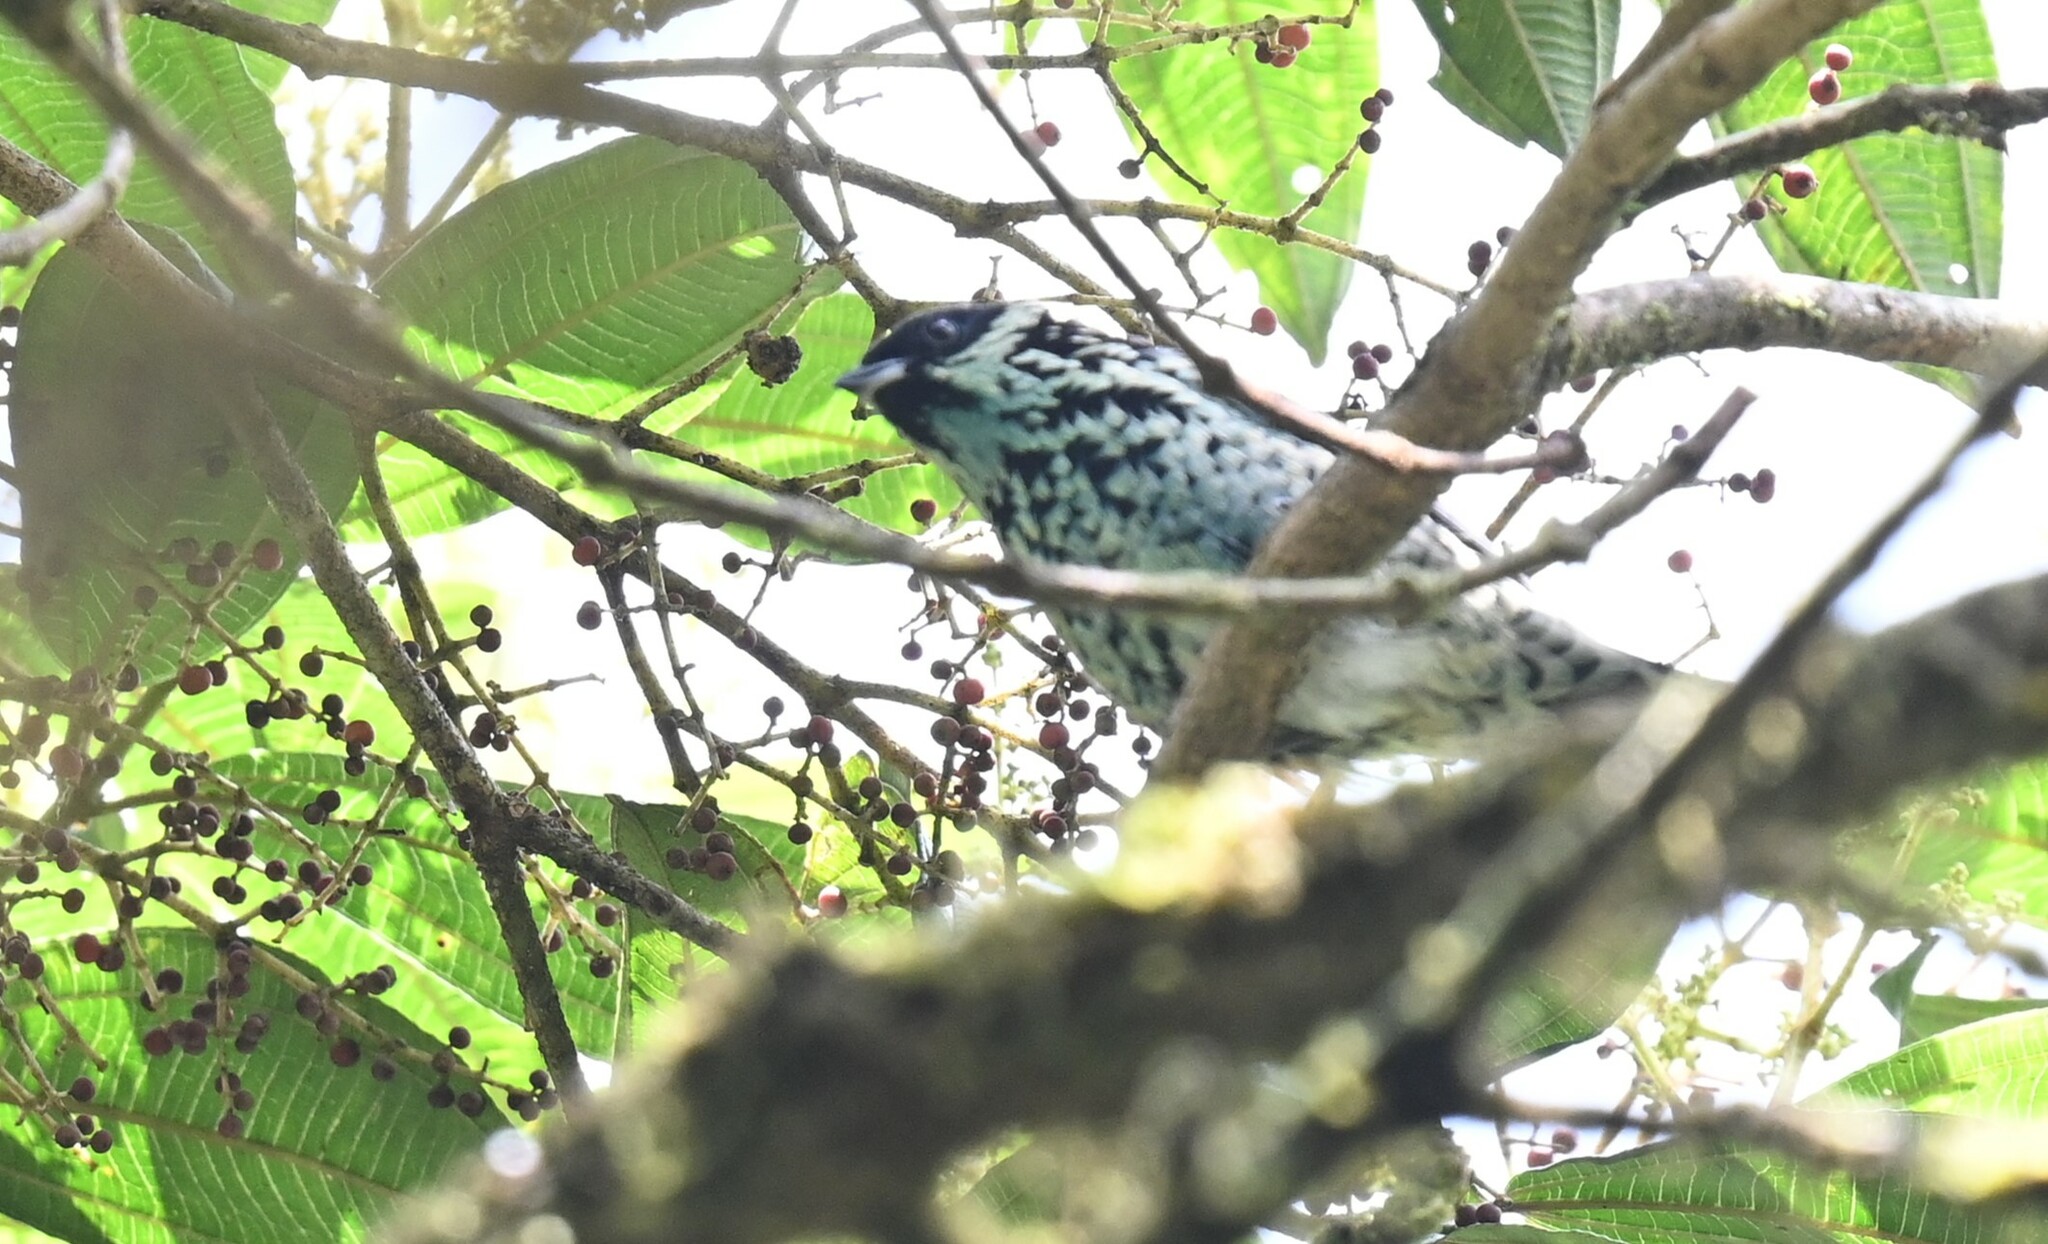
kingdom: Animalia
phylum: Chordata
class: Aves
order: Passeriformes
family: Thraupidae
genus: Tangara
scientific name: Tangara nigroviridis
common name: Beryl-spangled tanager
